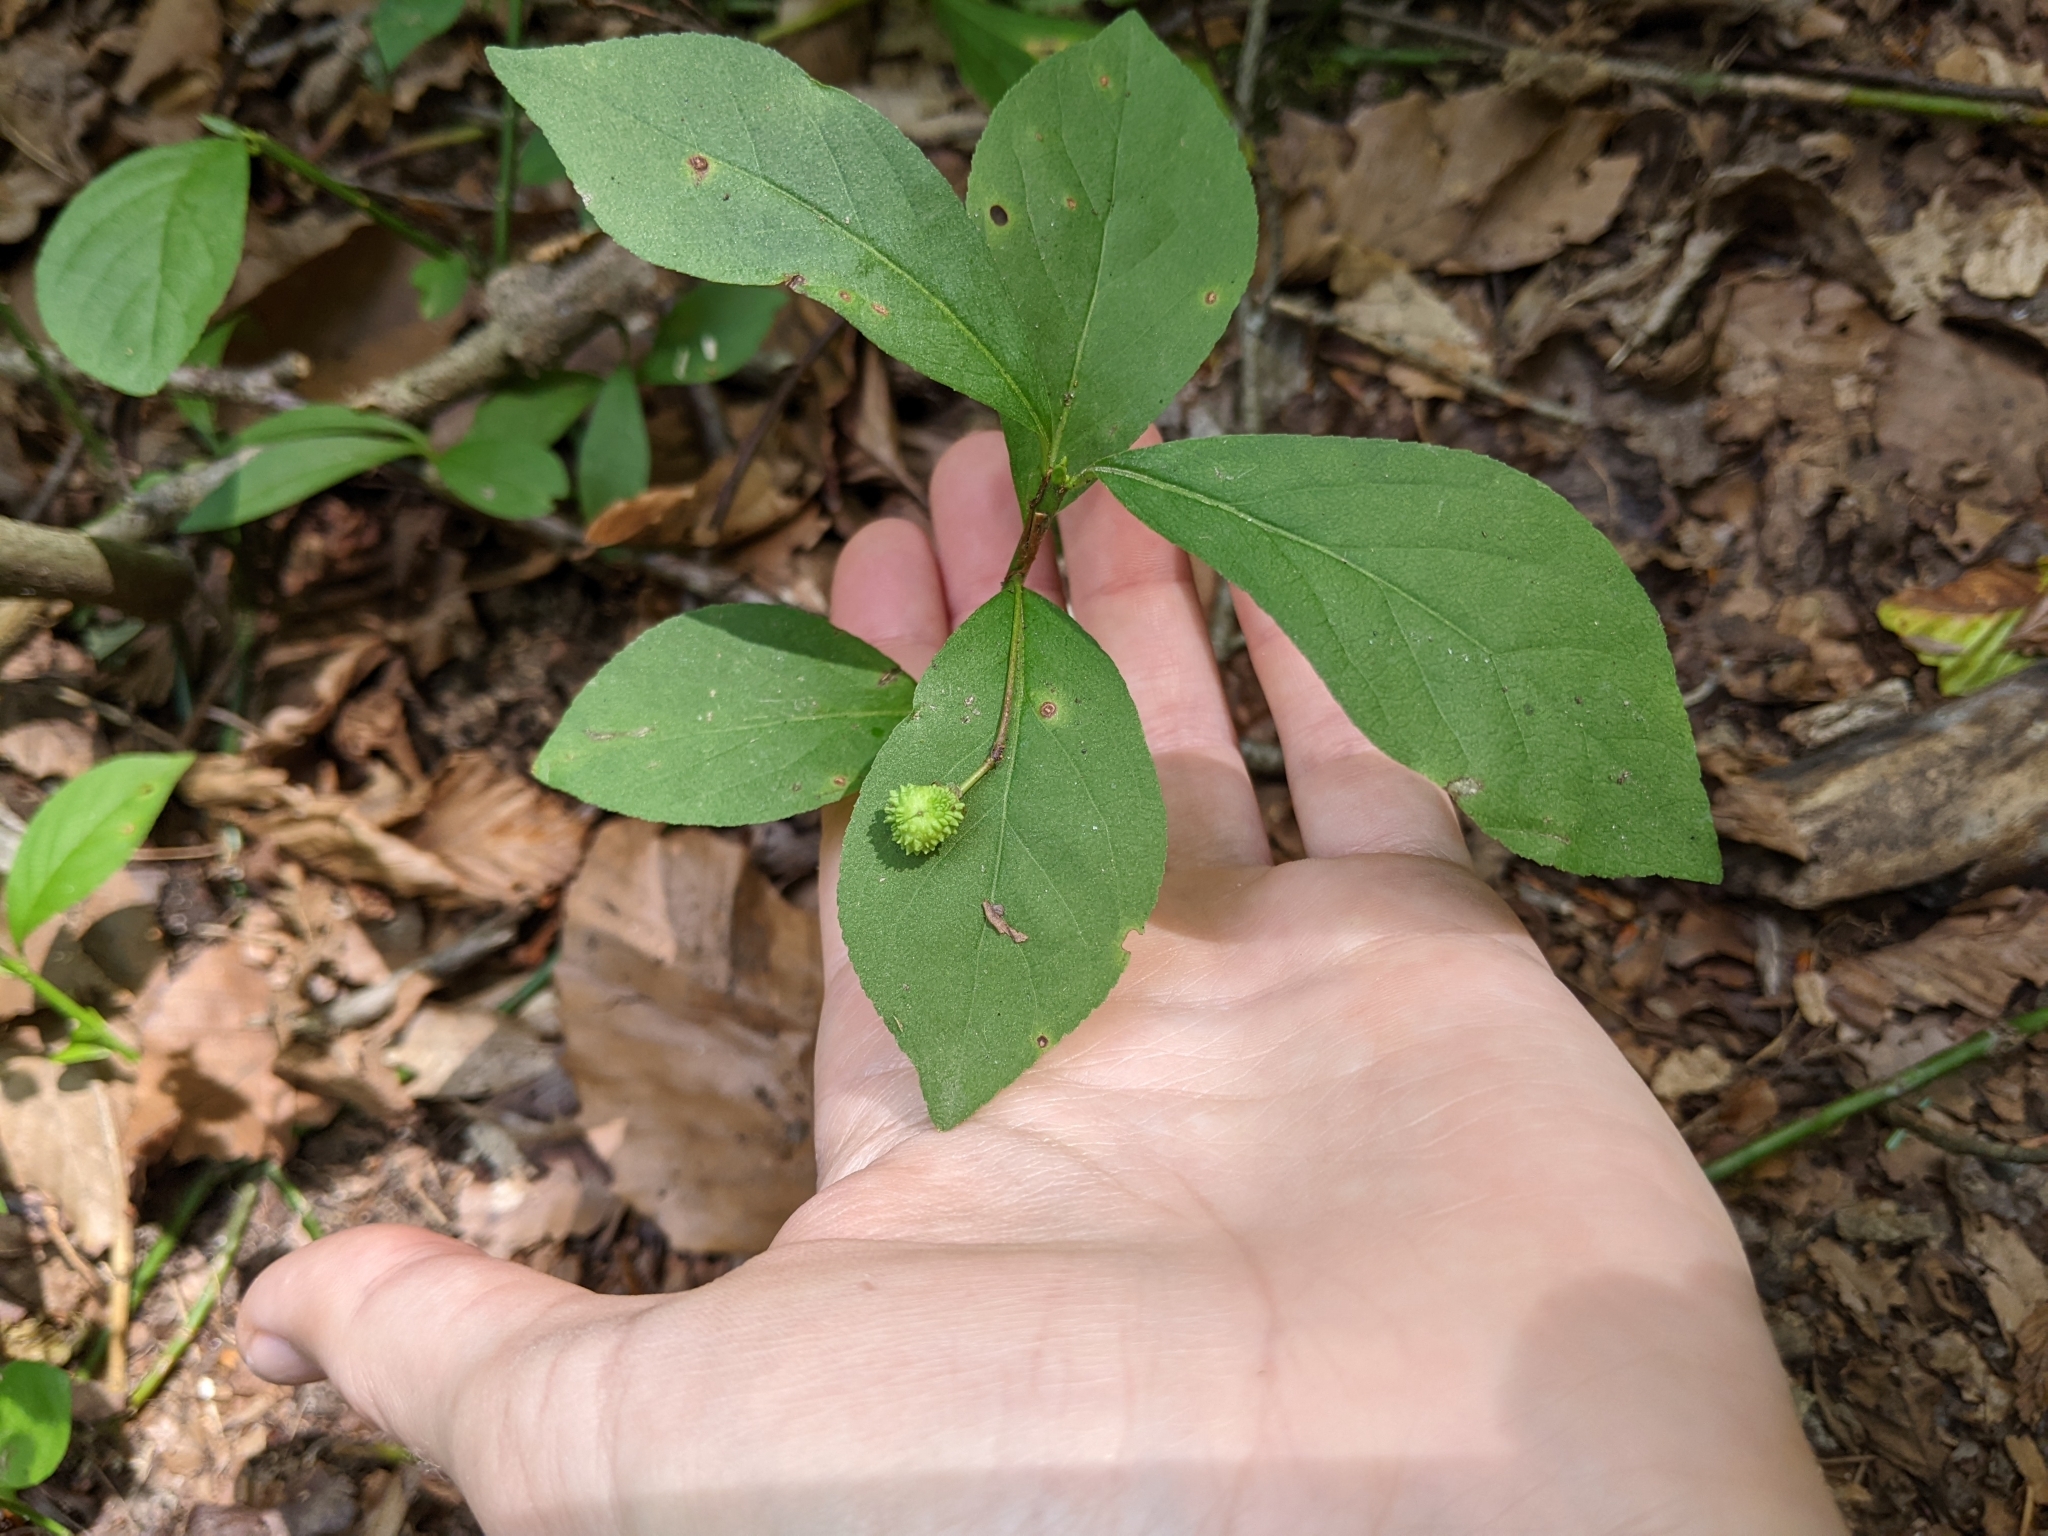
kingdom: Plantae
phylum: Tracheophyta
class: Magnoliopsida
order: Celastrales
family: Celastraceae
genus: Euonymus
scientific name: Euonymus obovatus
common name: Running strawberry-bush
